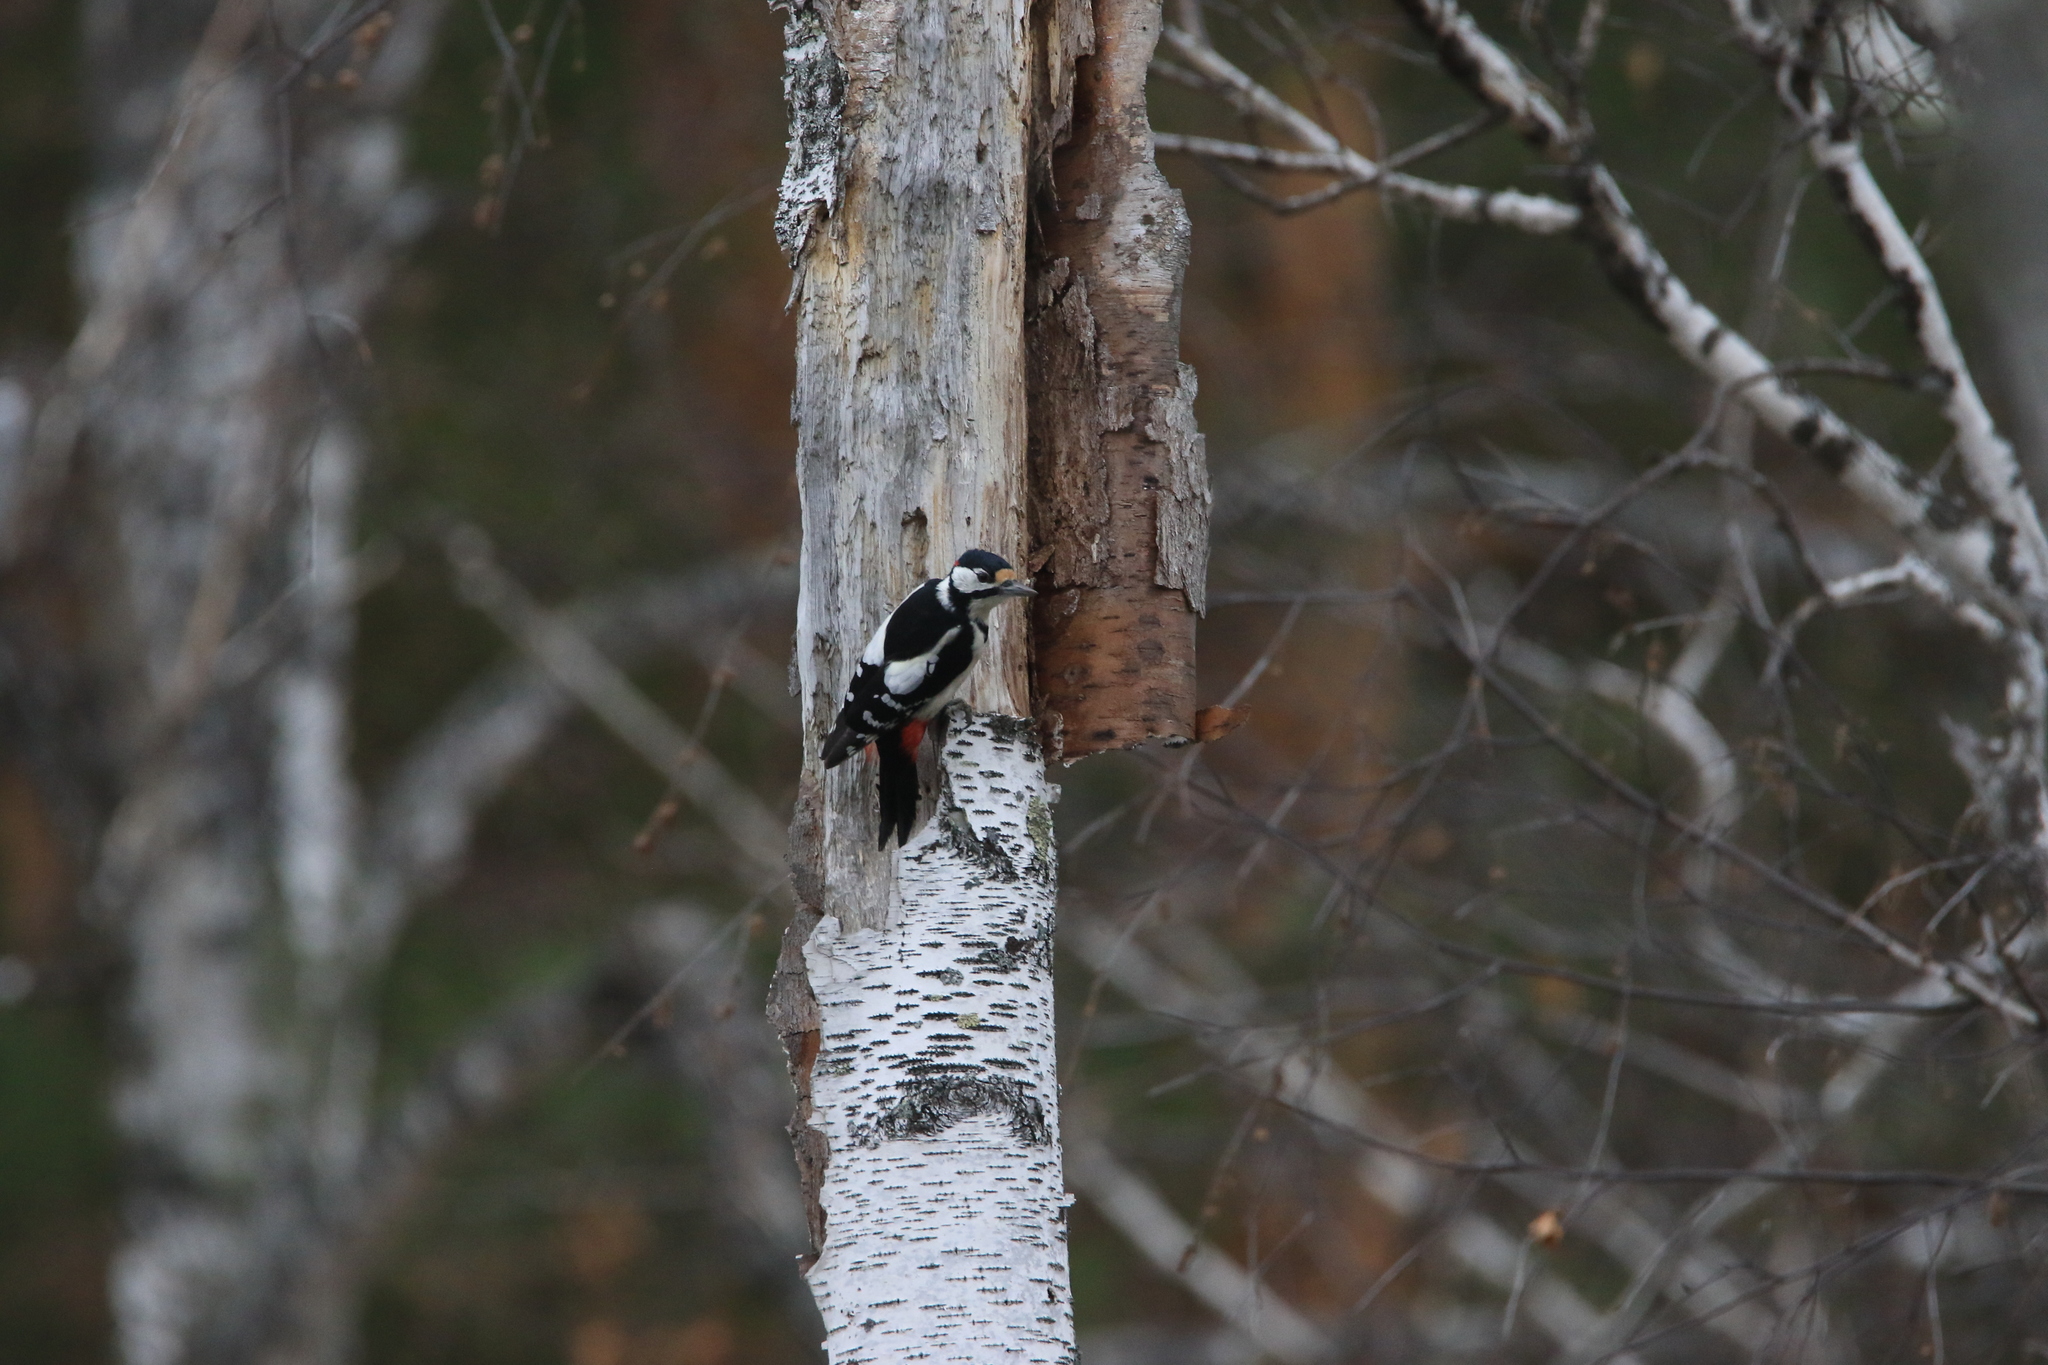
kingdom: Animalia
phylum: Chordata
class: Aves
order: Piciformes
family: Picidae
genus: Dendrocopos
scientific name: Dendrocopos major
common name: Great spotted woodpecker
